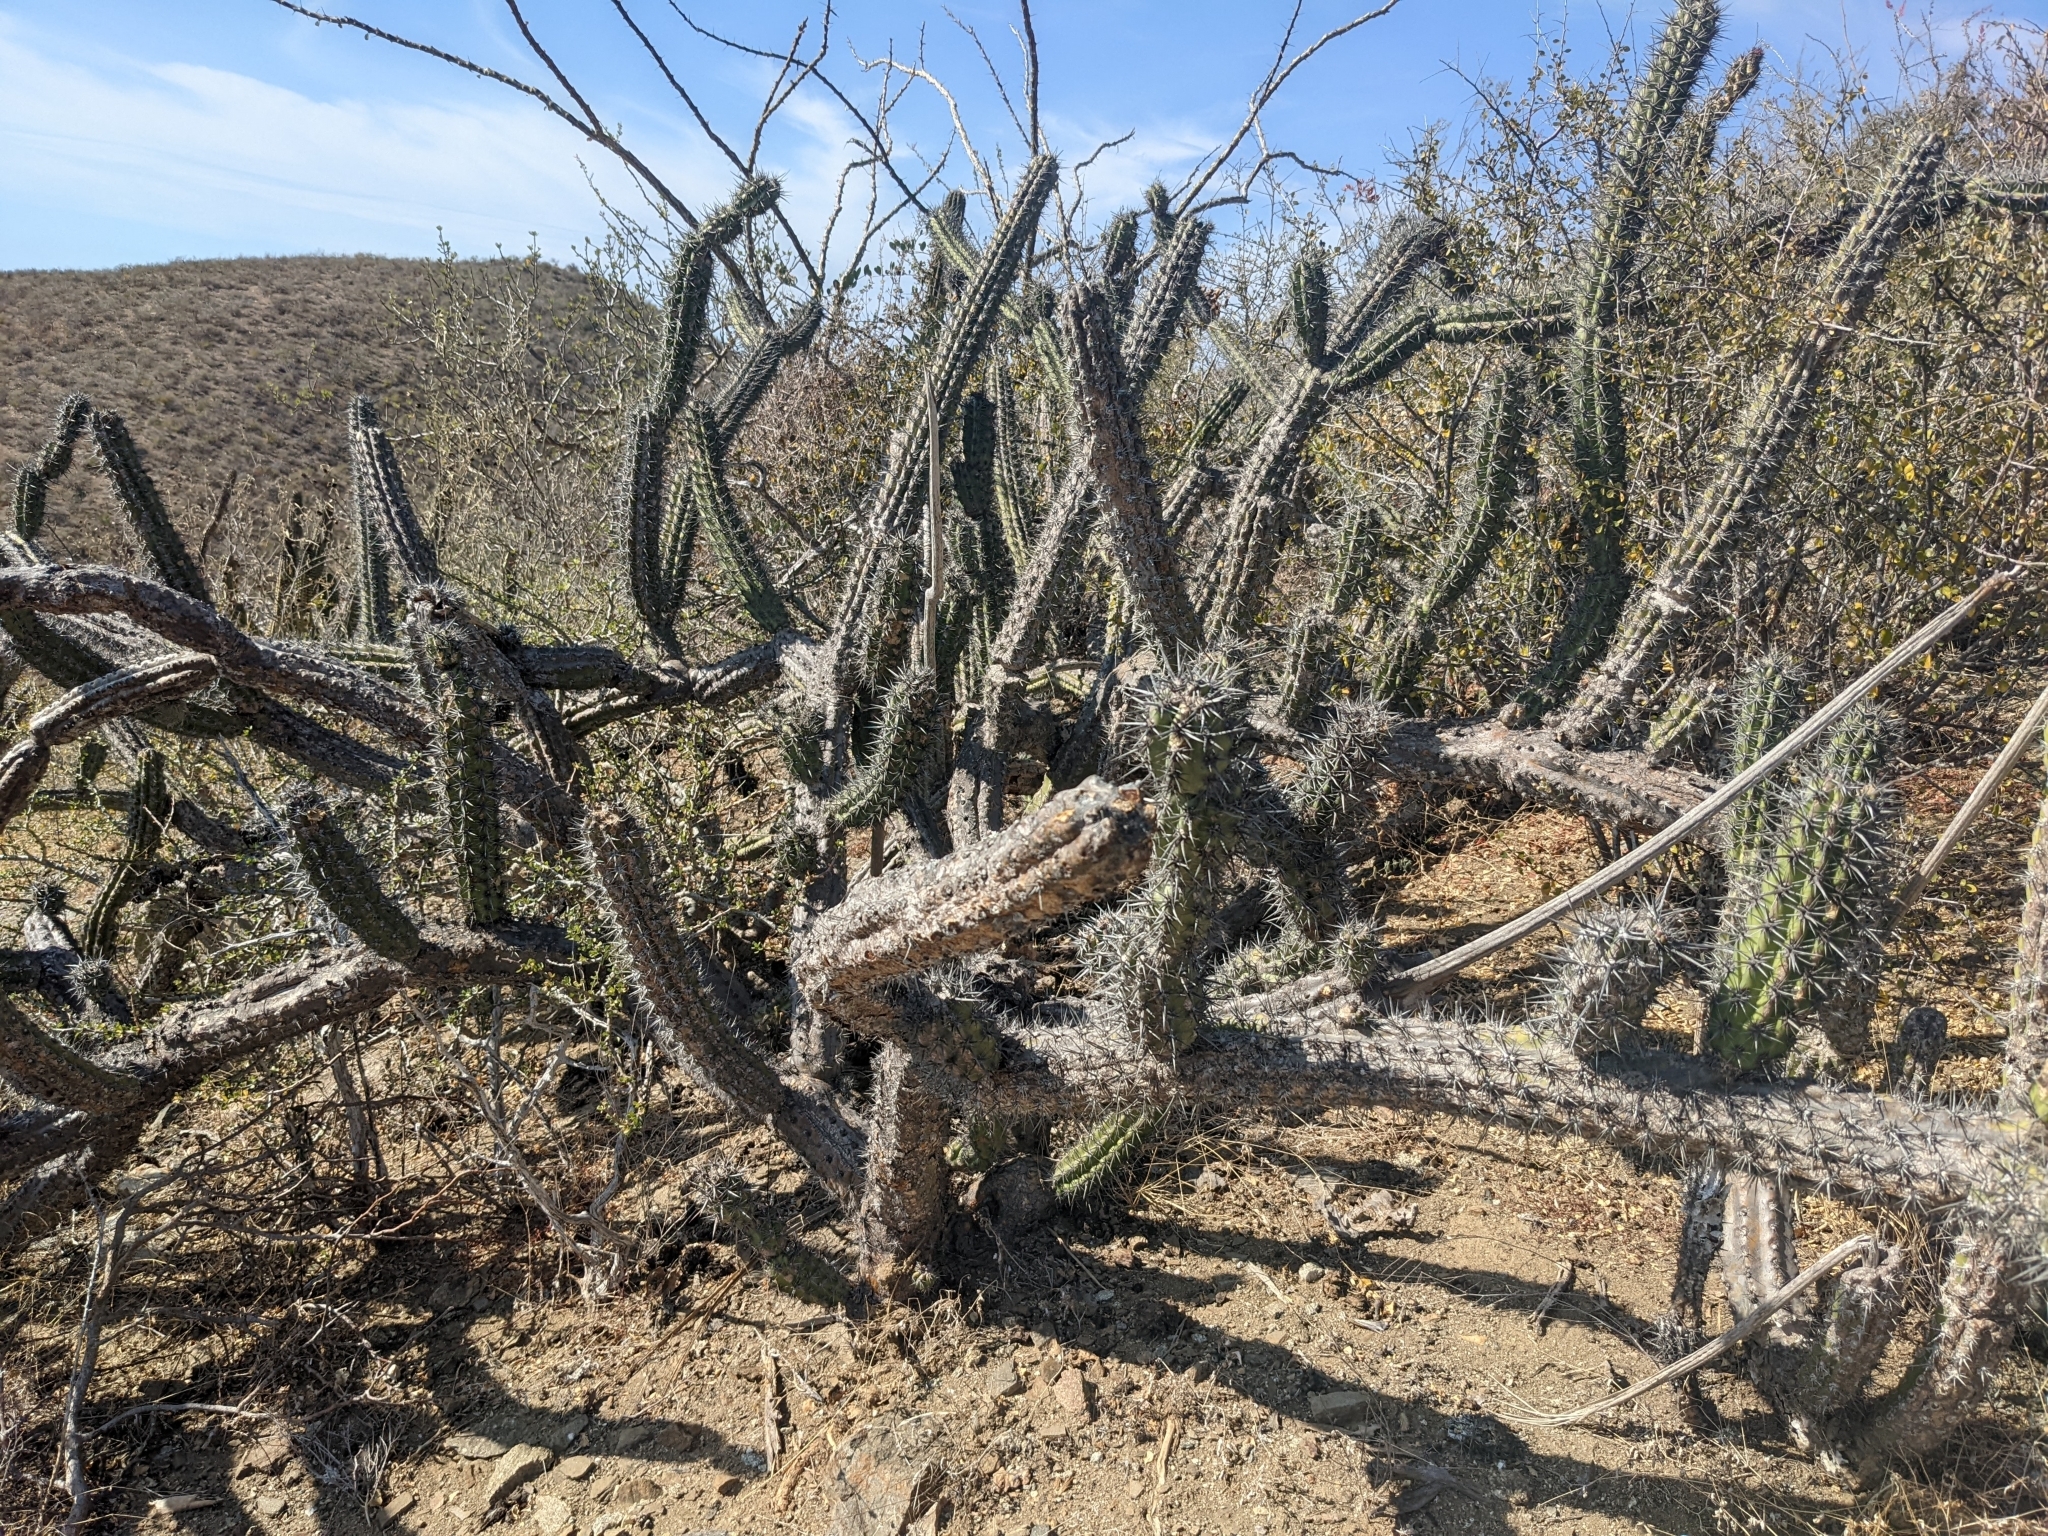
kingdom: Plantae
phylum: Tracheophyta
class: Magnoliopsida
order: Caryophyllales
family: Cactaceae
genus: Stenocereus
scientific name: Stenocereus gummosus
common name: Dagger cactus
